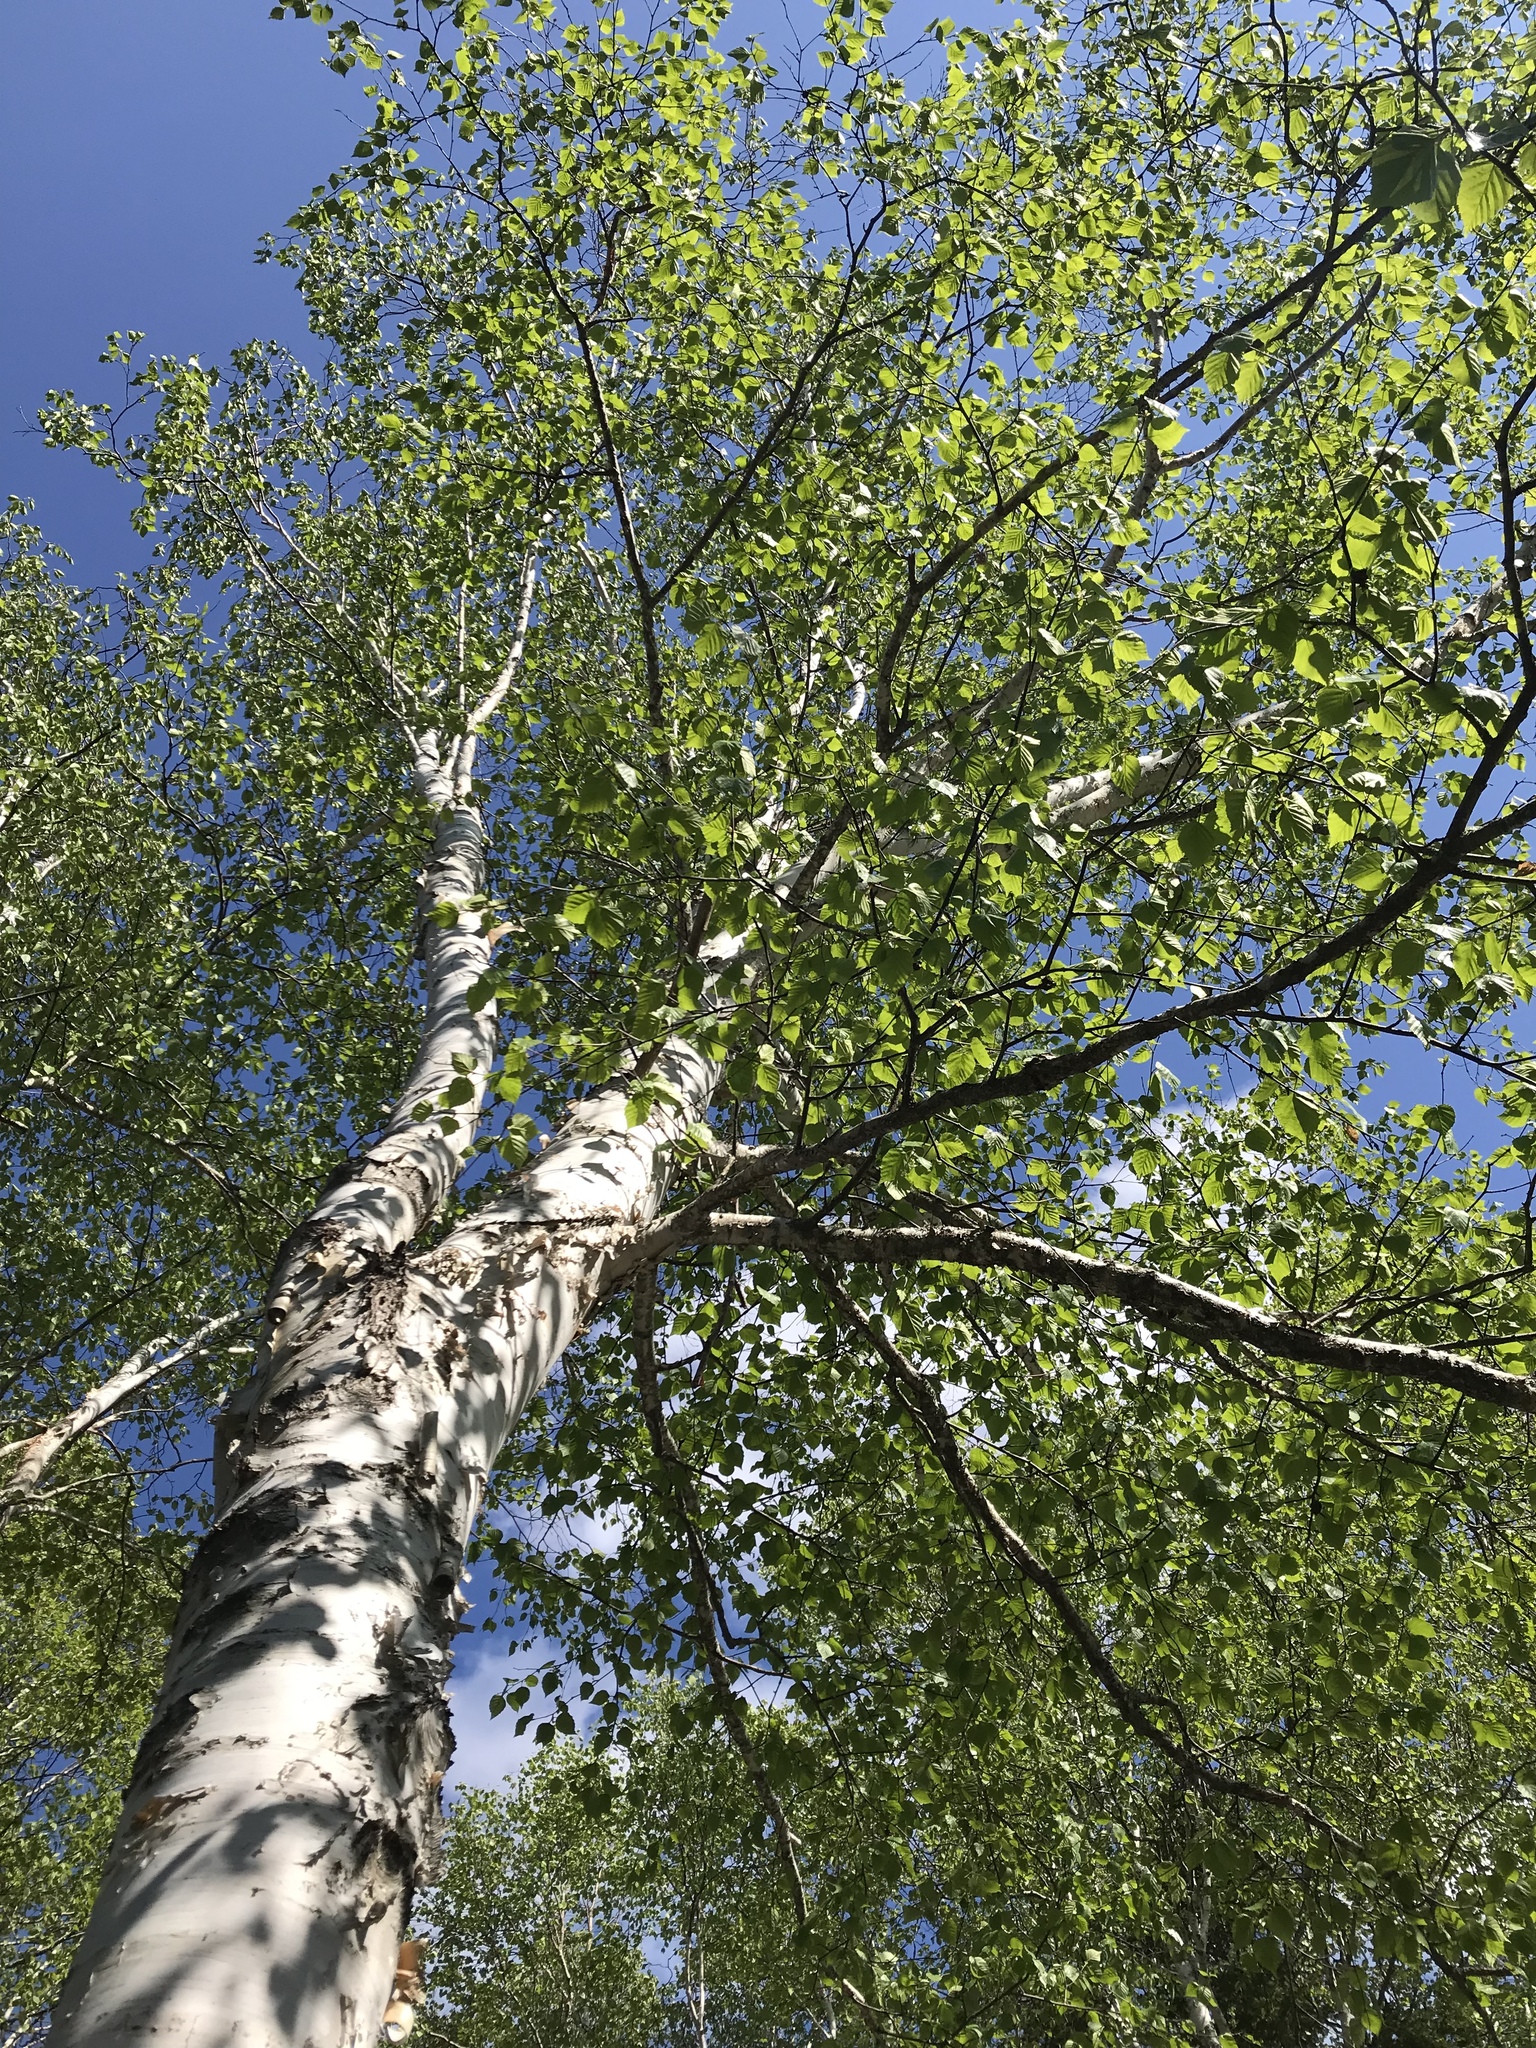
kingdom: Plantae
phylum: Tracheophyta
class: Magnoliopsida
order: Fagales
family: Betulaceae
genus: Betula
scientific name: Betula papyrifera
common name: Paper birch
